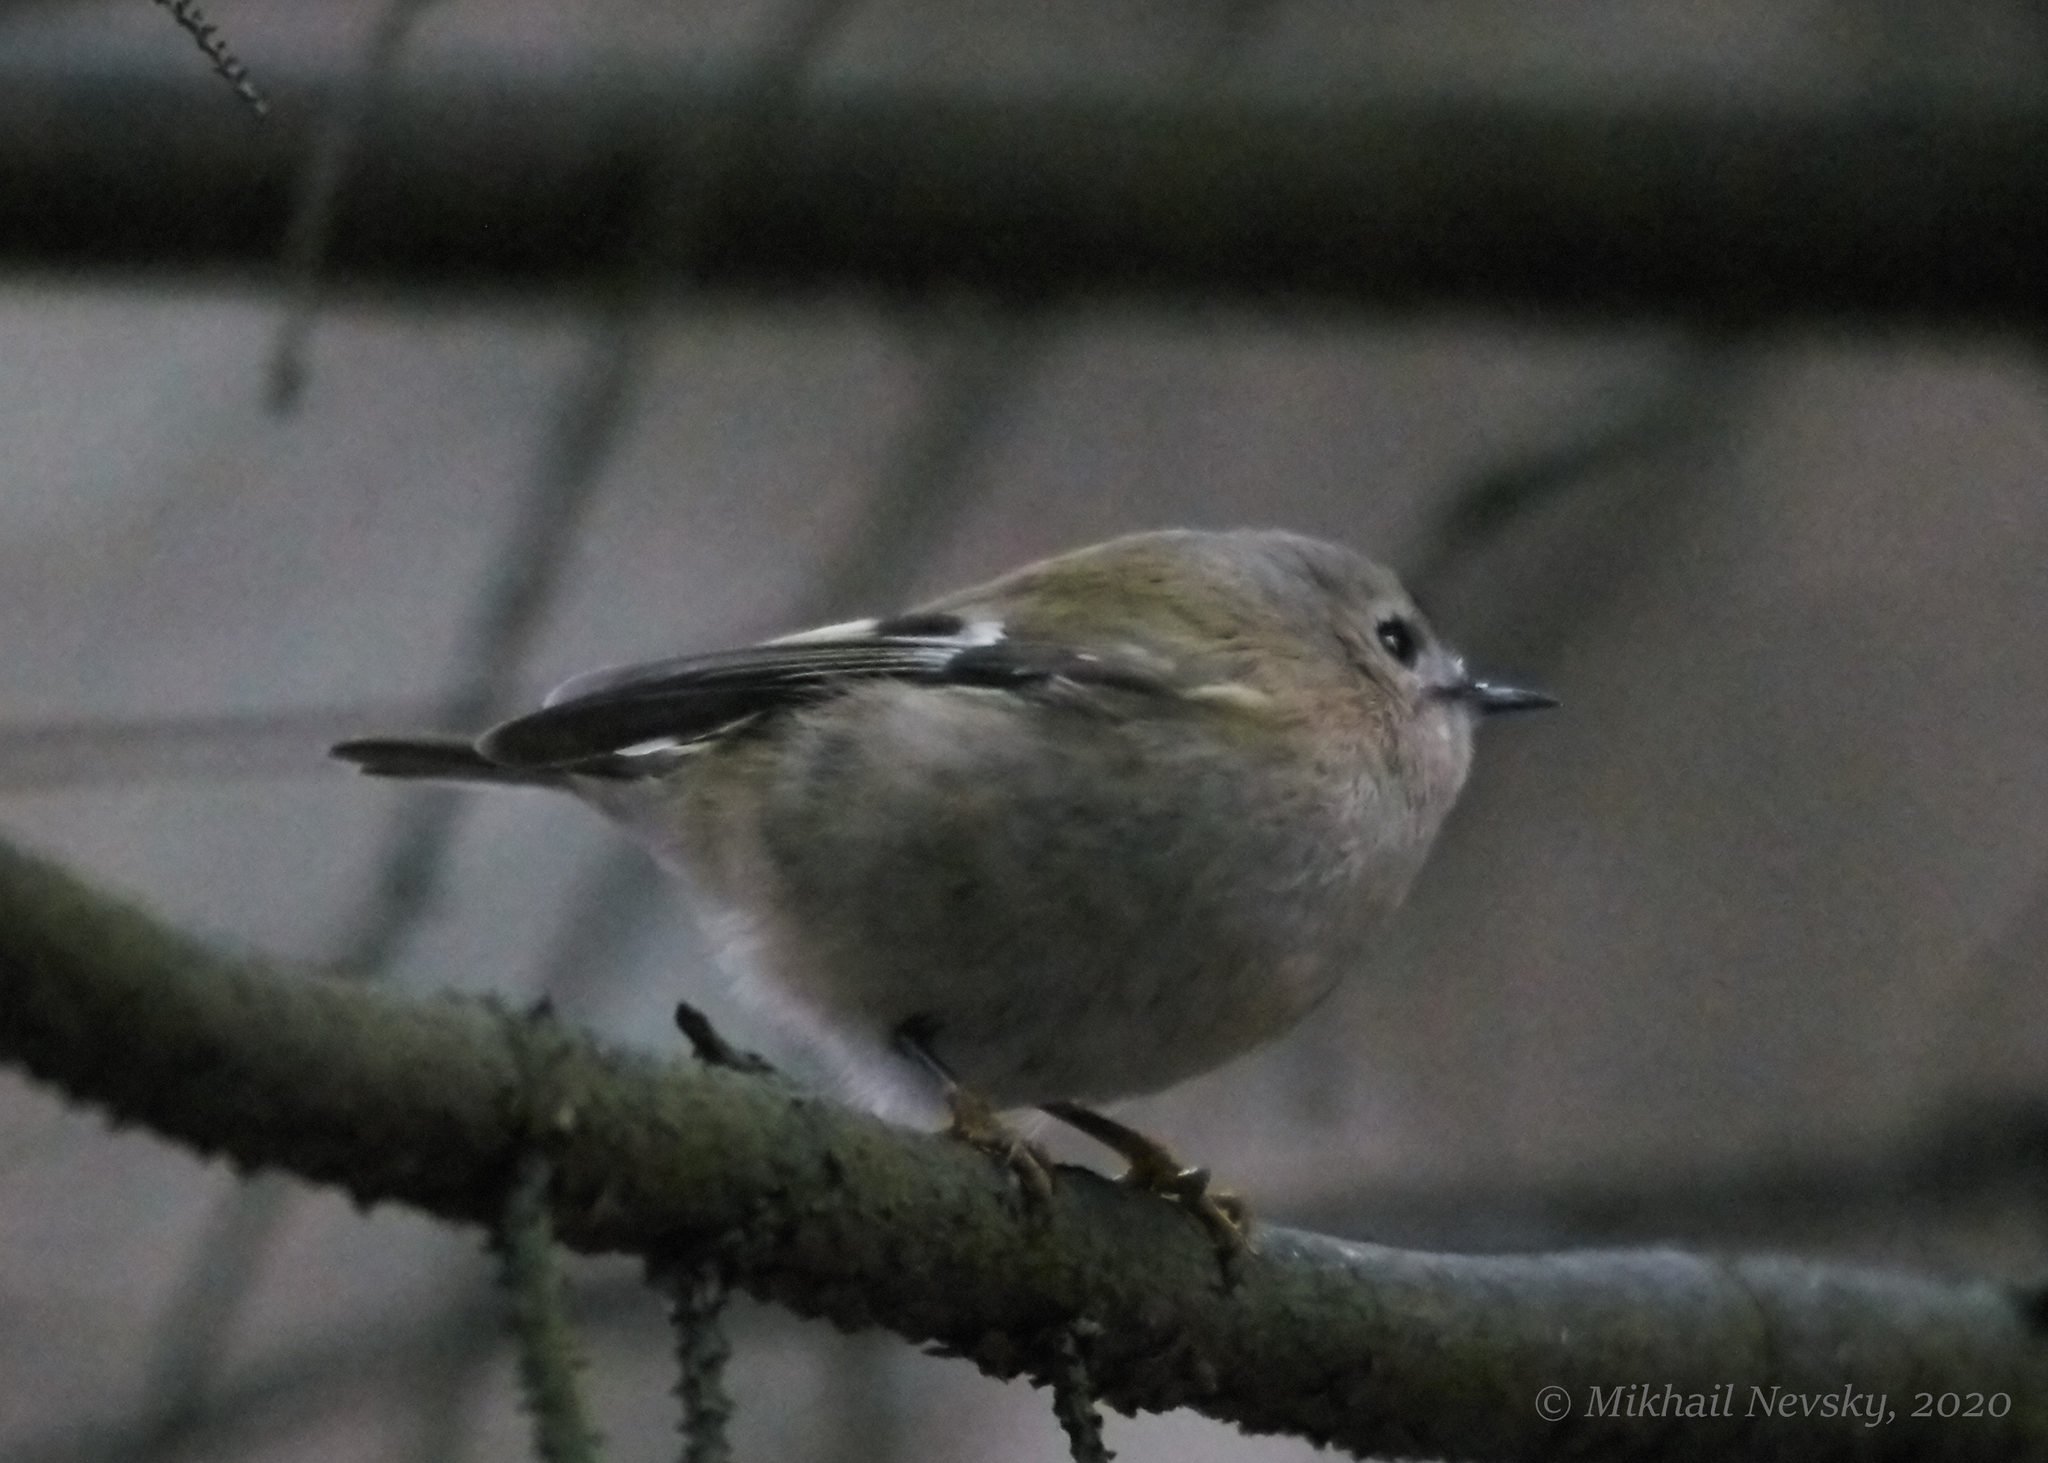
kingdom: Animalia
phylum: Chordata
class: Aves
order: Passeriformes
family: Regulidae
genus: Regulus
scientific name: Regulus regulus
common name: Goldcrest
